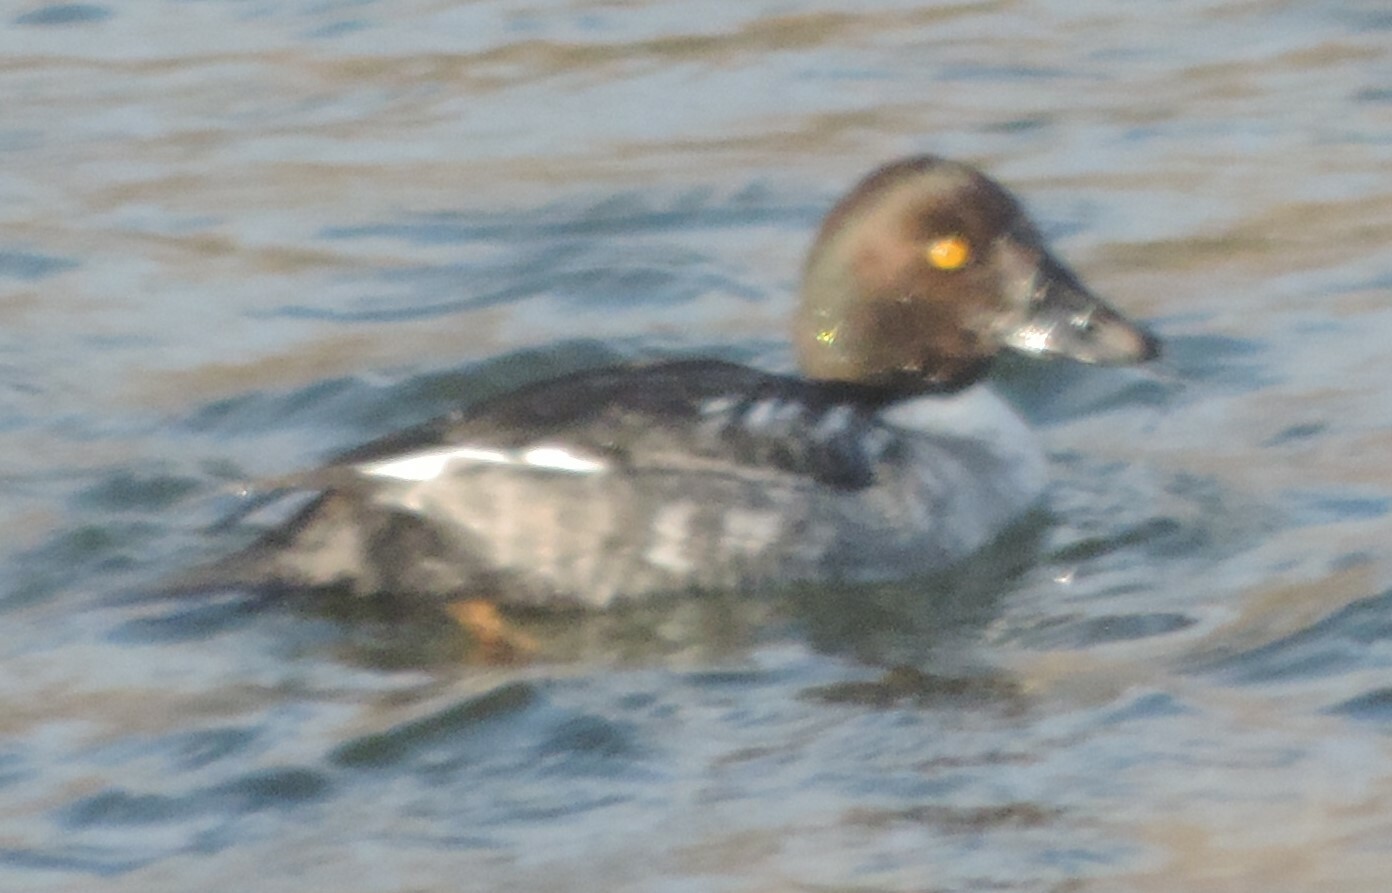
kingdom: Animalia
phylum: Chordata
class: Aves
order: Anseriformes
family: Anatidae
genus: Bucephala
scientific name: Bucephala clangula
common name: Common goldeneye
